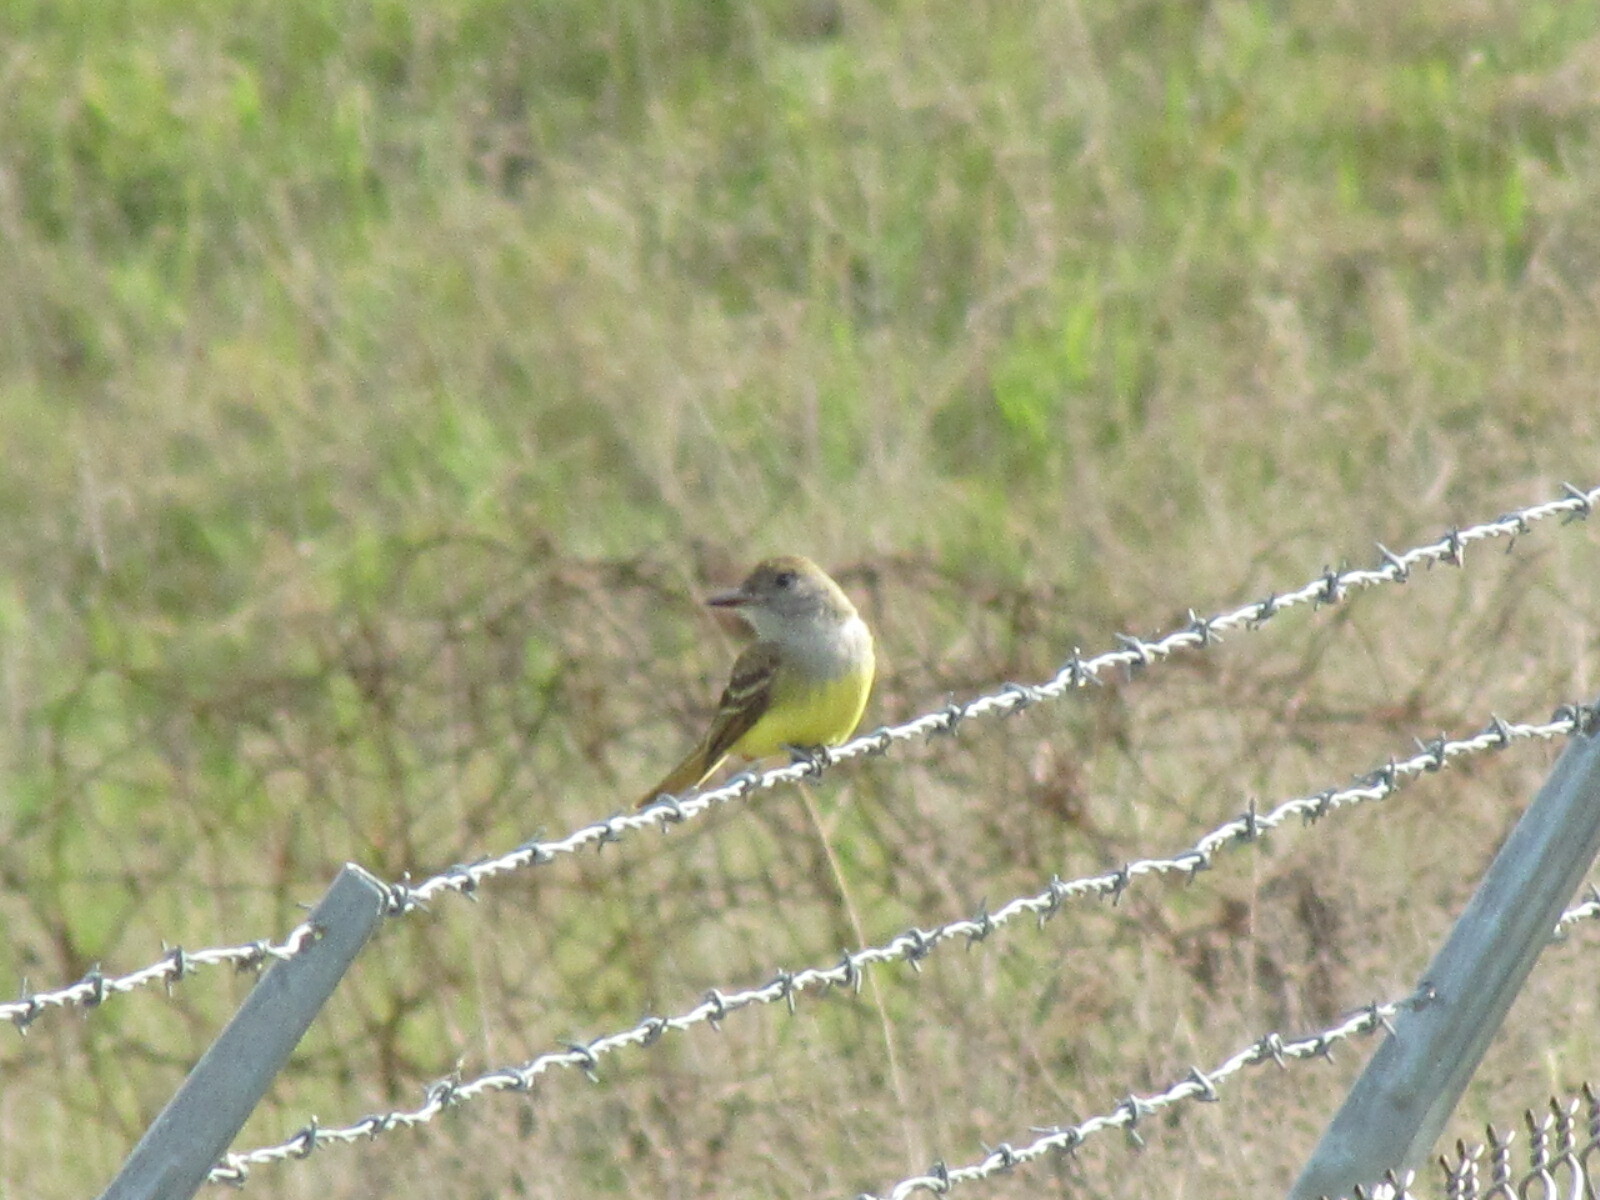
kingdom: Animalia
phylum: Chordata
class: Aves
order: Passeriformes
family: Tyrannidae
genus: Myiarchus
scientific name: Myiarchus crinitus
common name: Great crested flycatcher
